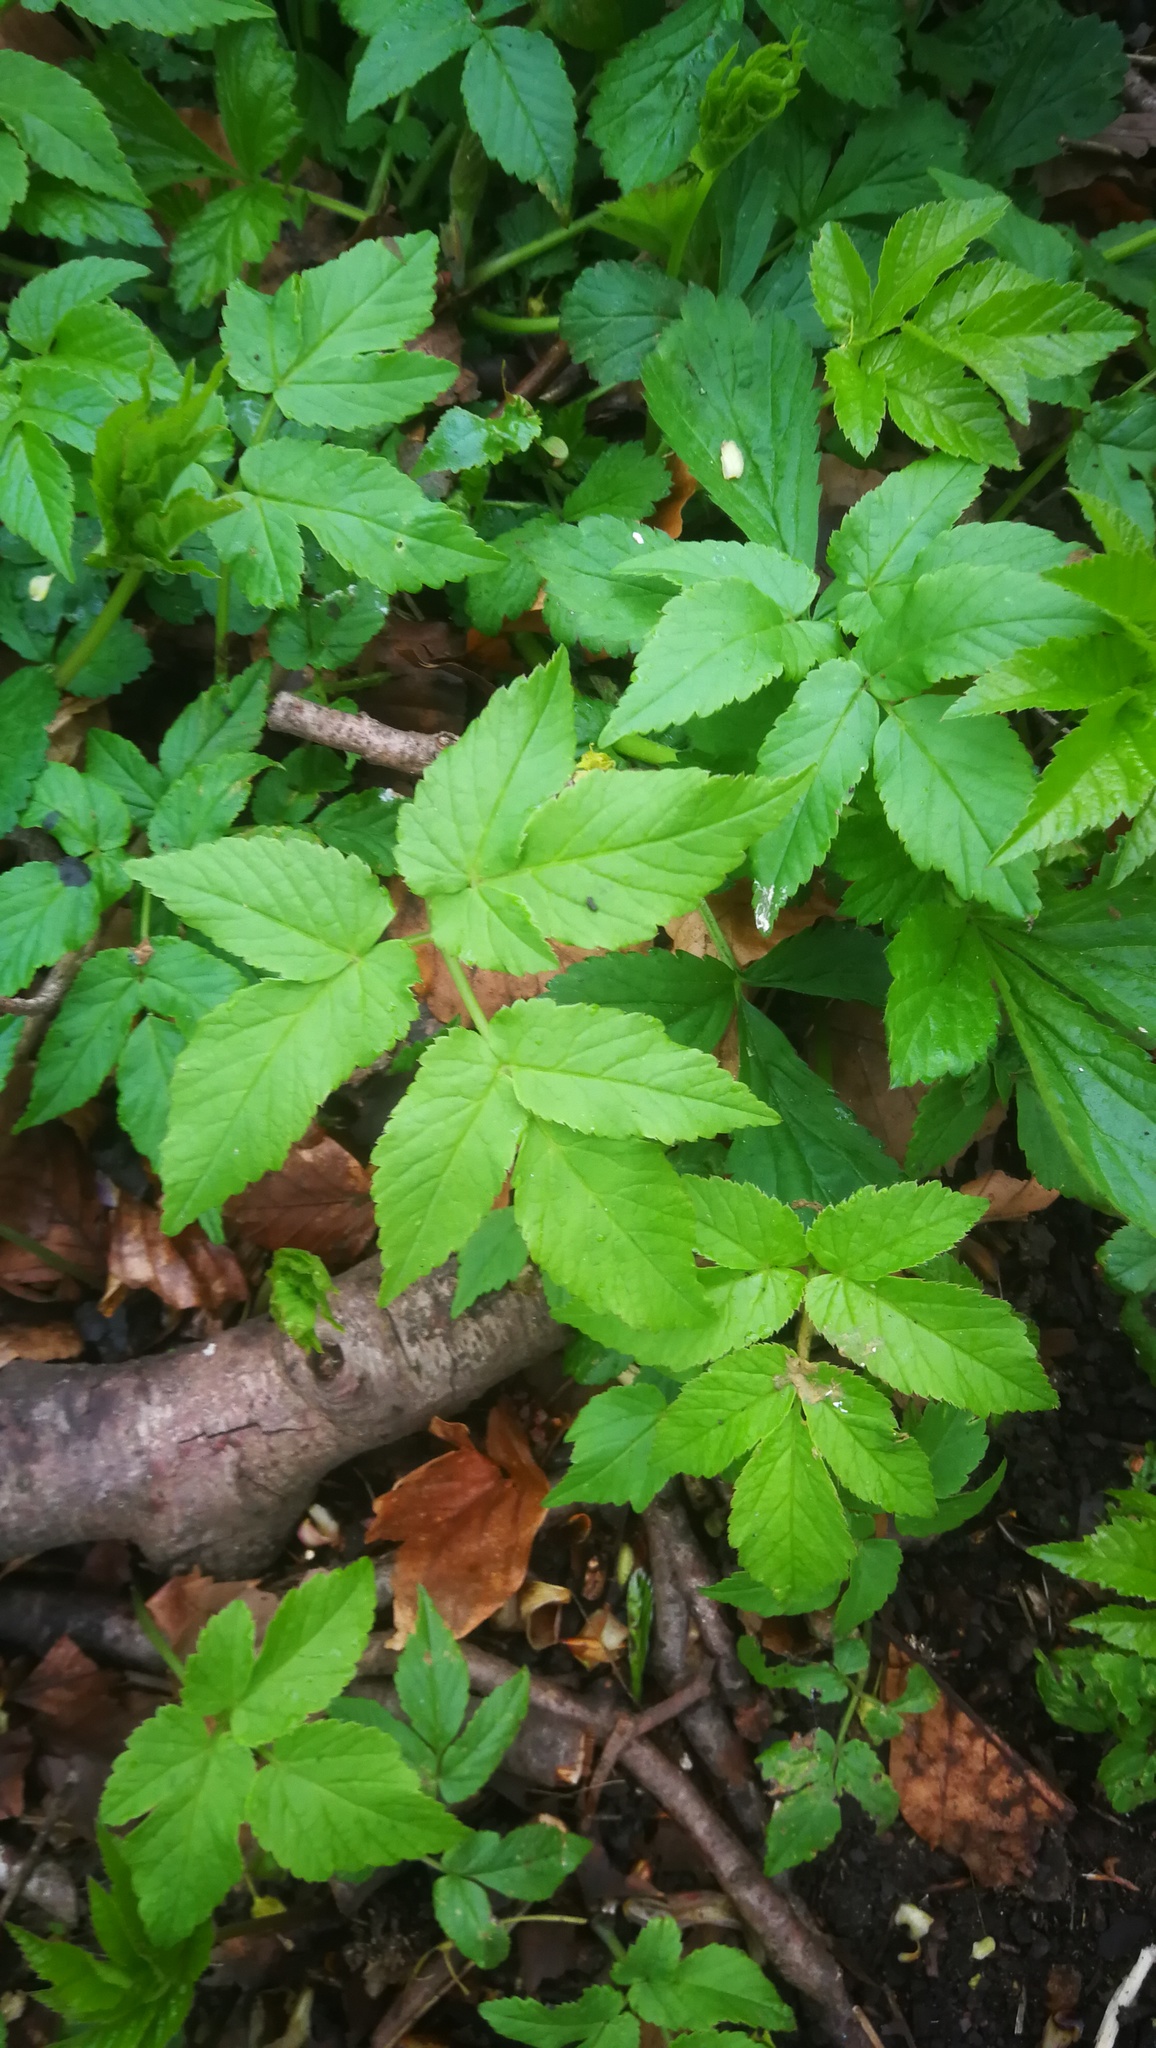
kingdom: Plantae
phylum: Tracheophyta
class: Magnoliopsida
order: Apiales
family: Apiaceae
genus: Aegopodium
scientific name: Aegopodium podagraria
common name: Ground-elder
